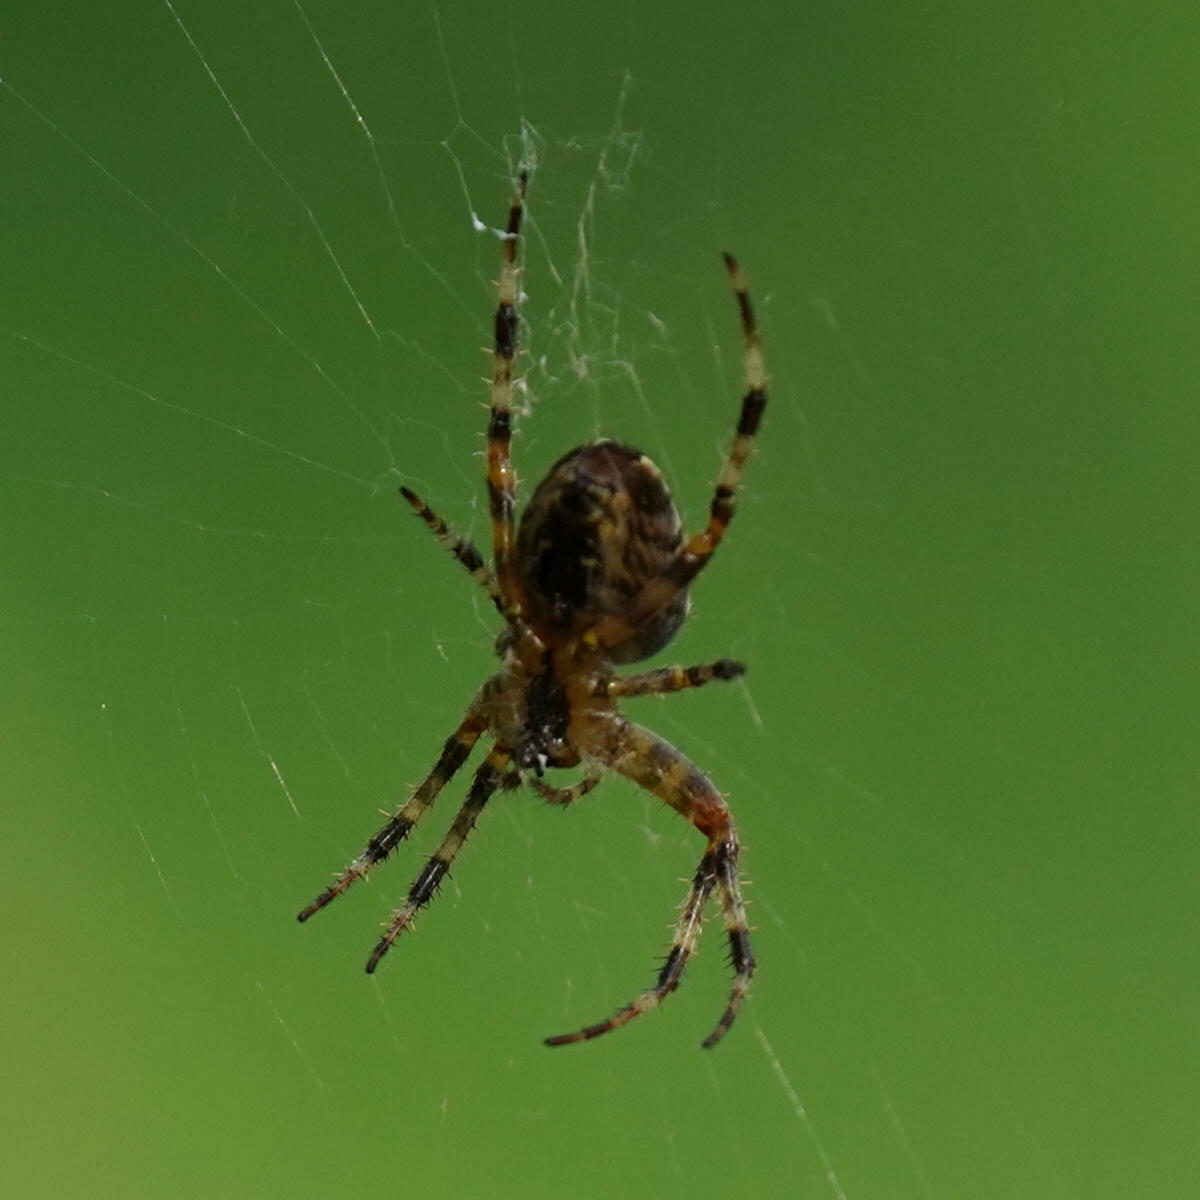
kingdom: Animalia
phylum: Arthropoda
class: Arachnida
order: Araneae
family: Araneidae
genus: Araneus
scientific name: Araneus diadematus
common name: Cross orbweaver
